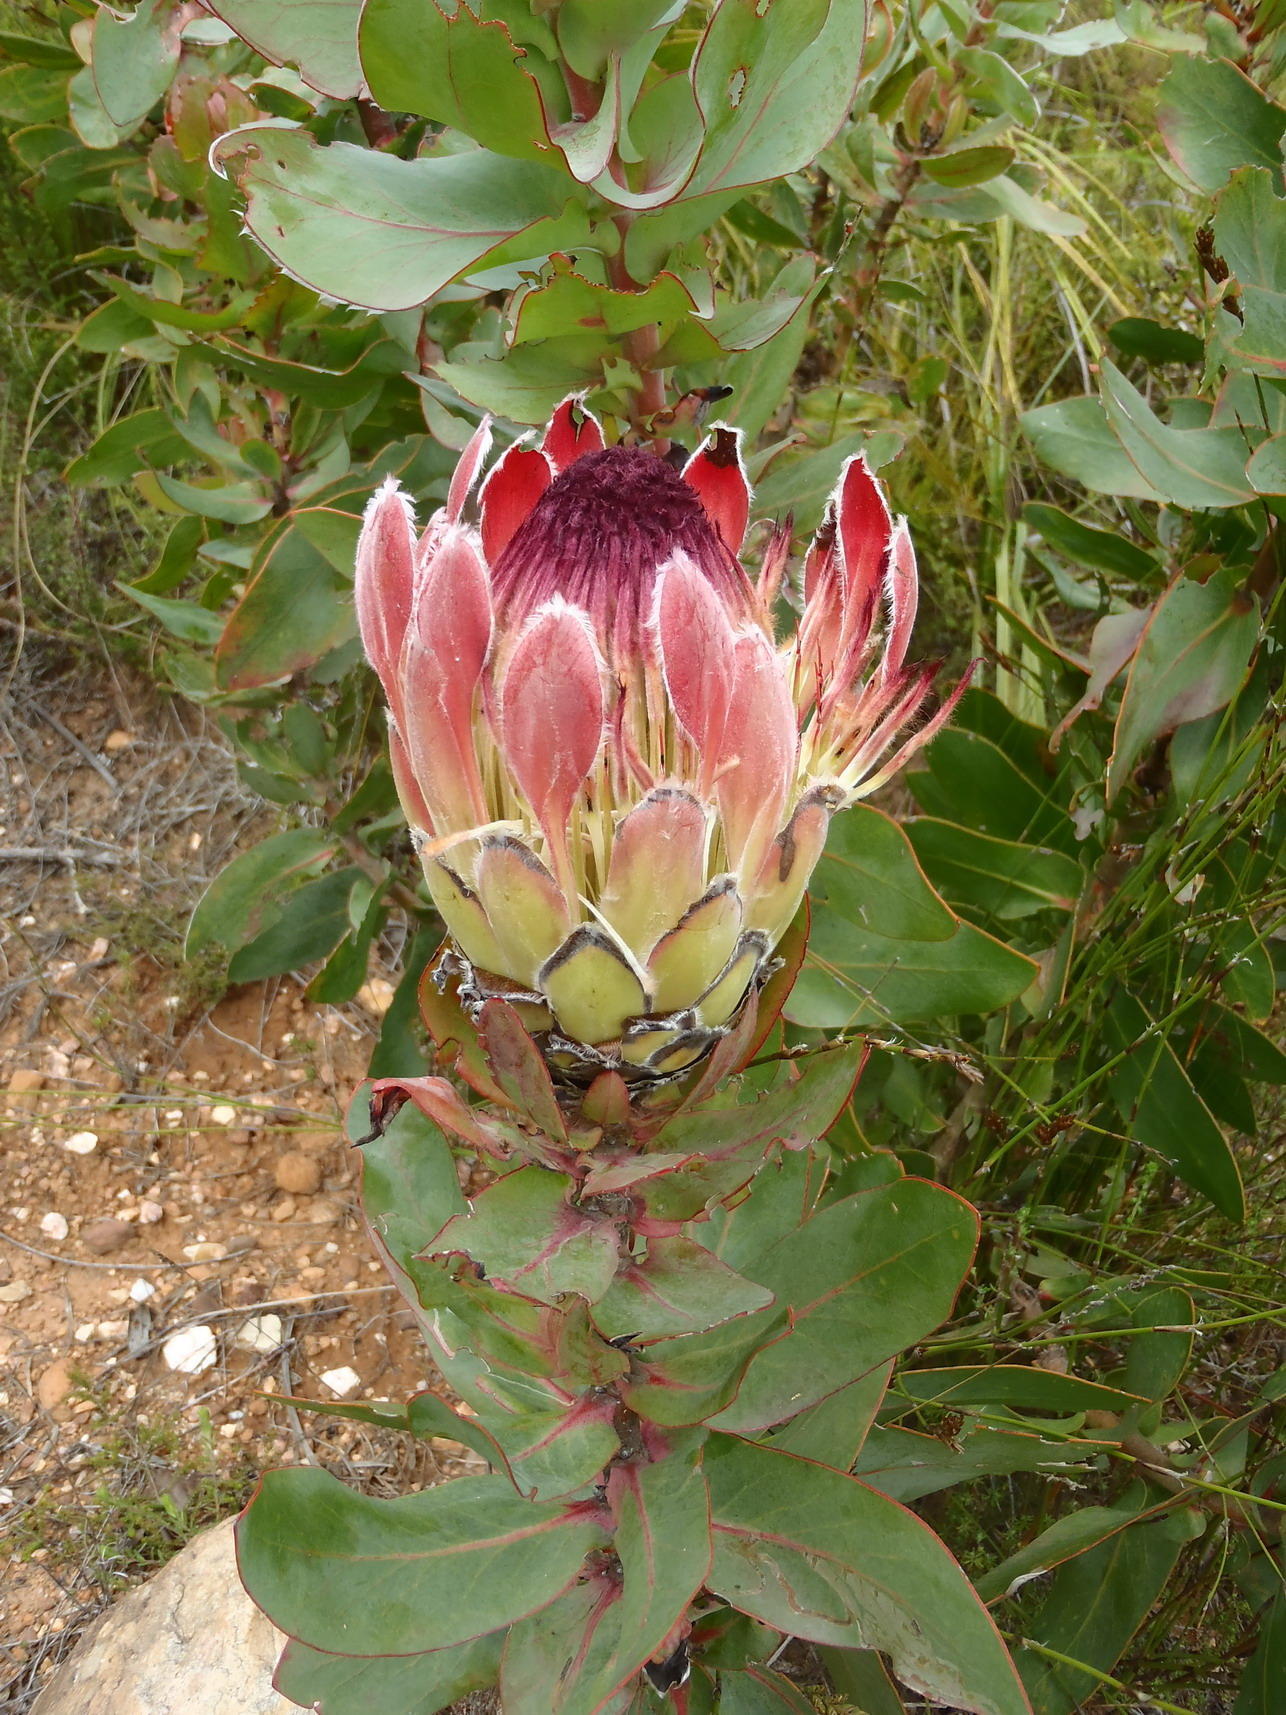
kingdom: Plantae
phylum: Tracheophyta
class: Magnoliopsida
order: Proteales
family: Proteaceae
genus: Protea
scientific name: Protea eximia
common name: Broad-leaved sugarbush
